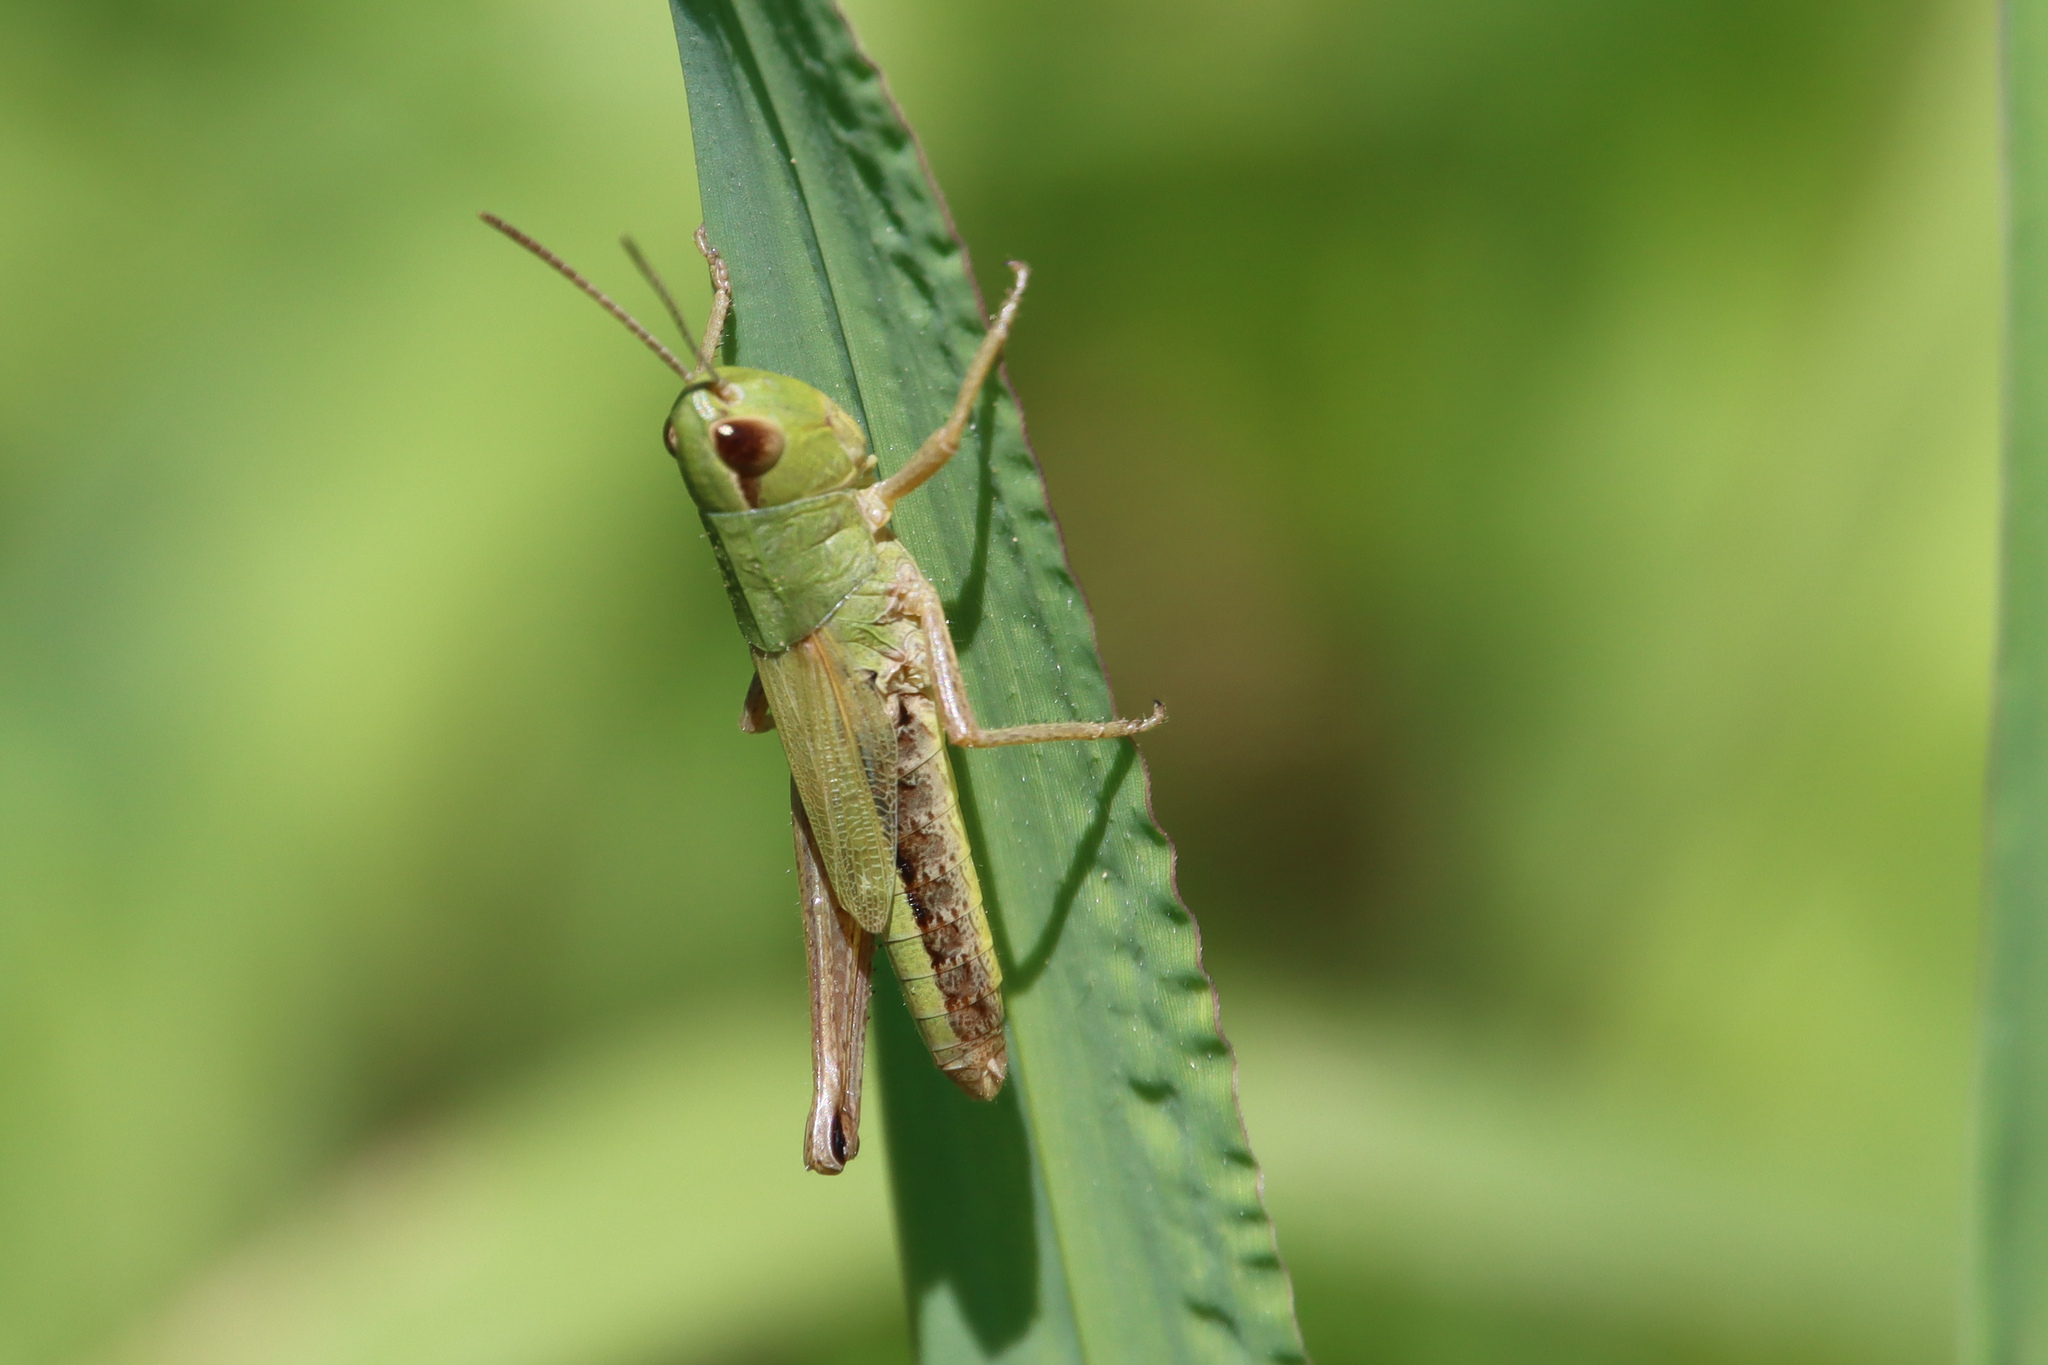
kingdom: Animalia
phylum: Arthropoda
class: Insecta
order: Orthoptera
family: Acrididae
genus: Pseudochorthippus
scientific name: Pseudochorthippus parallelus
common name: Meadow grasshopper
